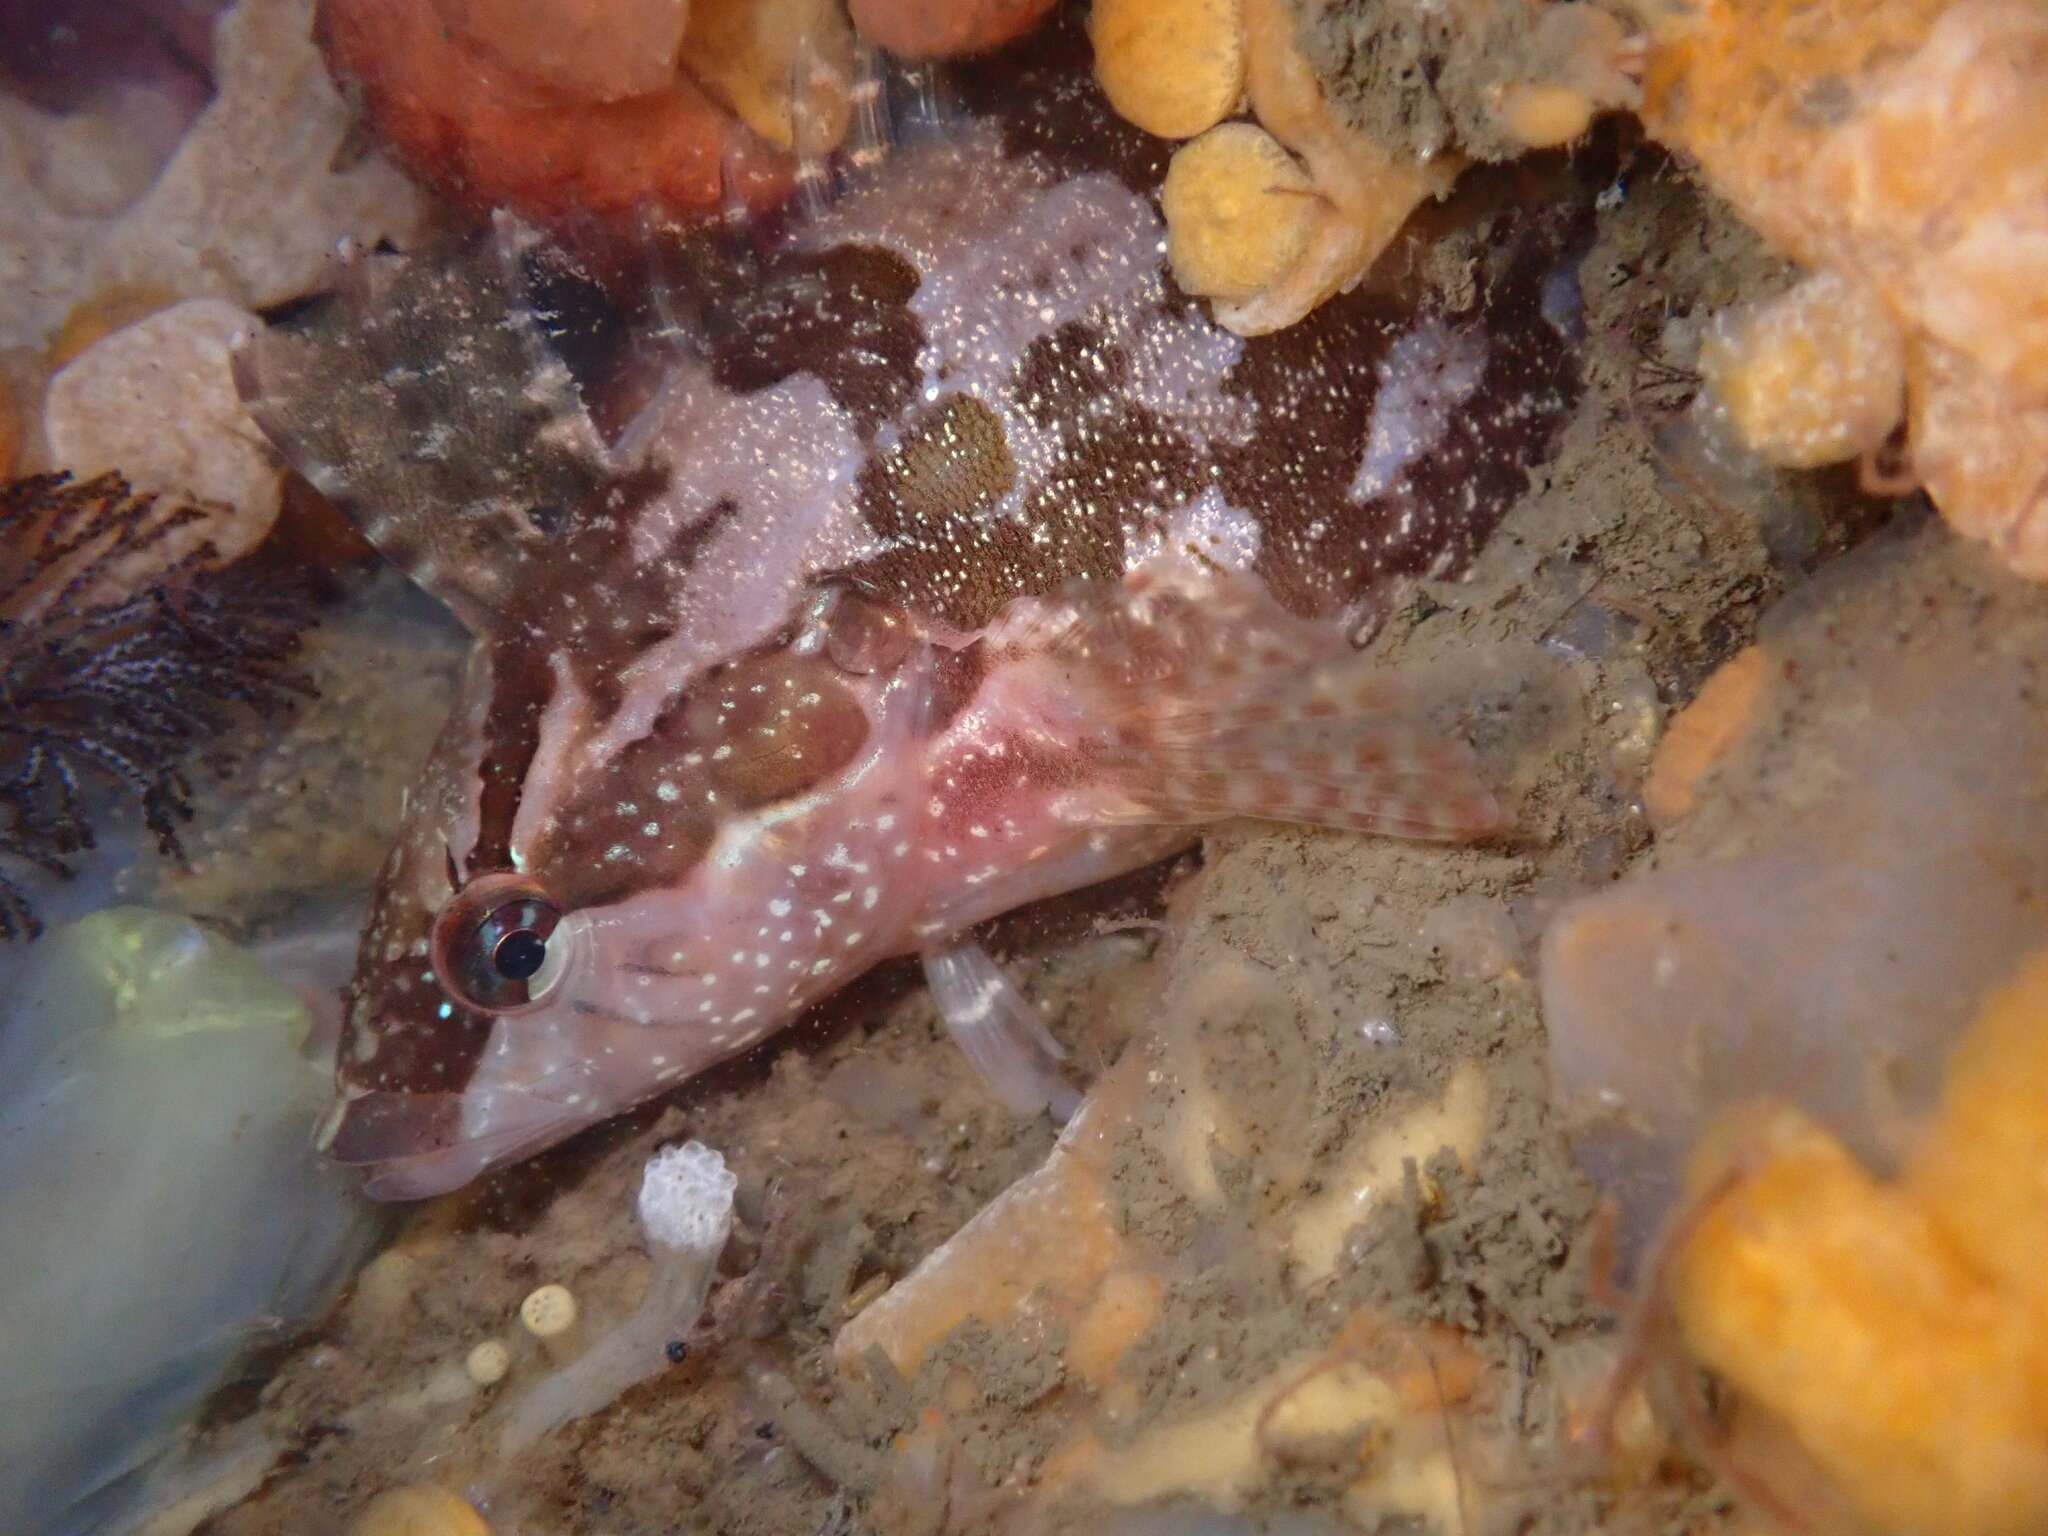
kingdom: Animalia
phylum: Chordata
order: Perciformes
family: Clinidae
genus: Gibbonsia
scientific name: Gibbonsia metzi
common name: Striped kelpfish
